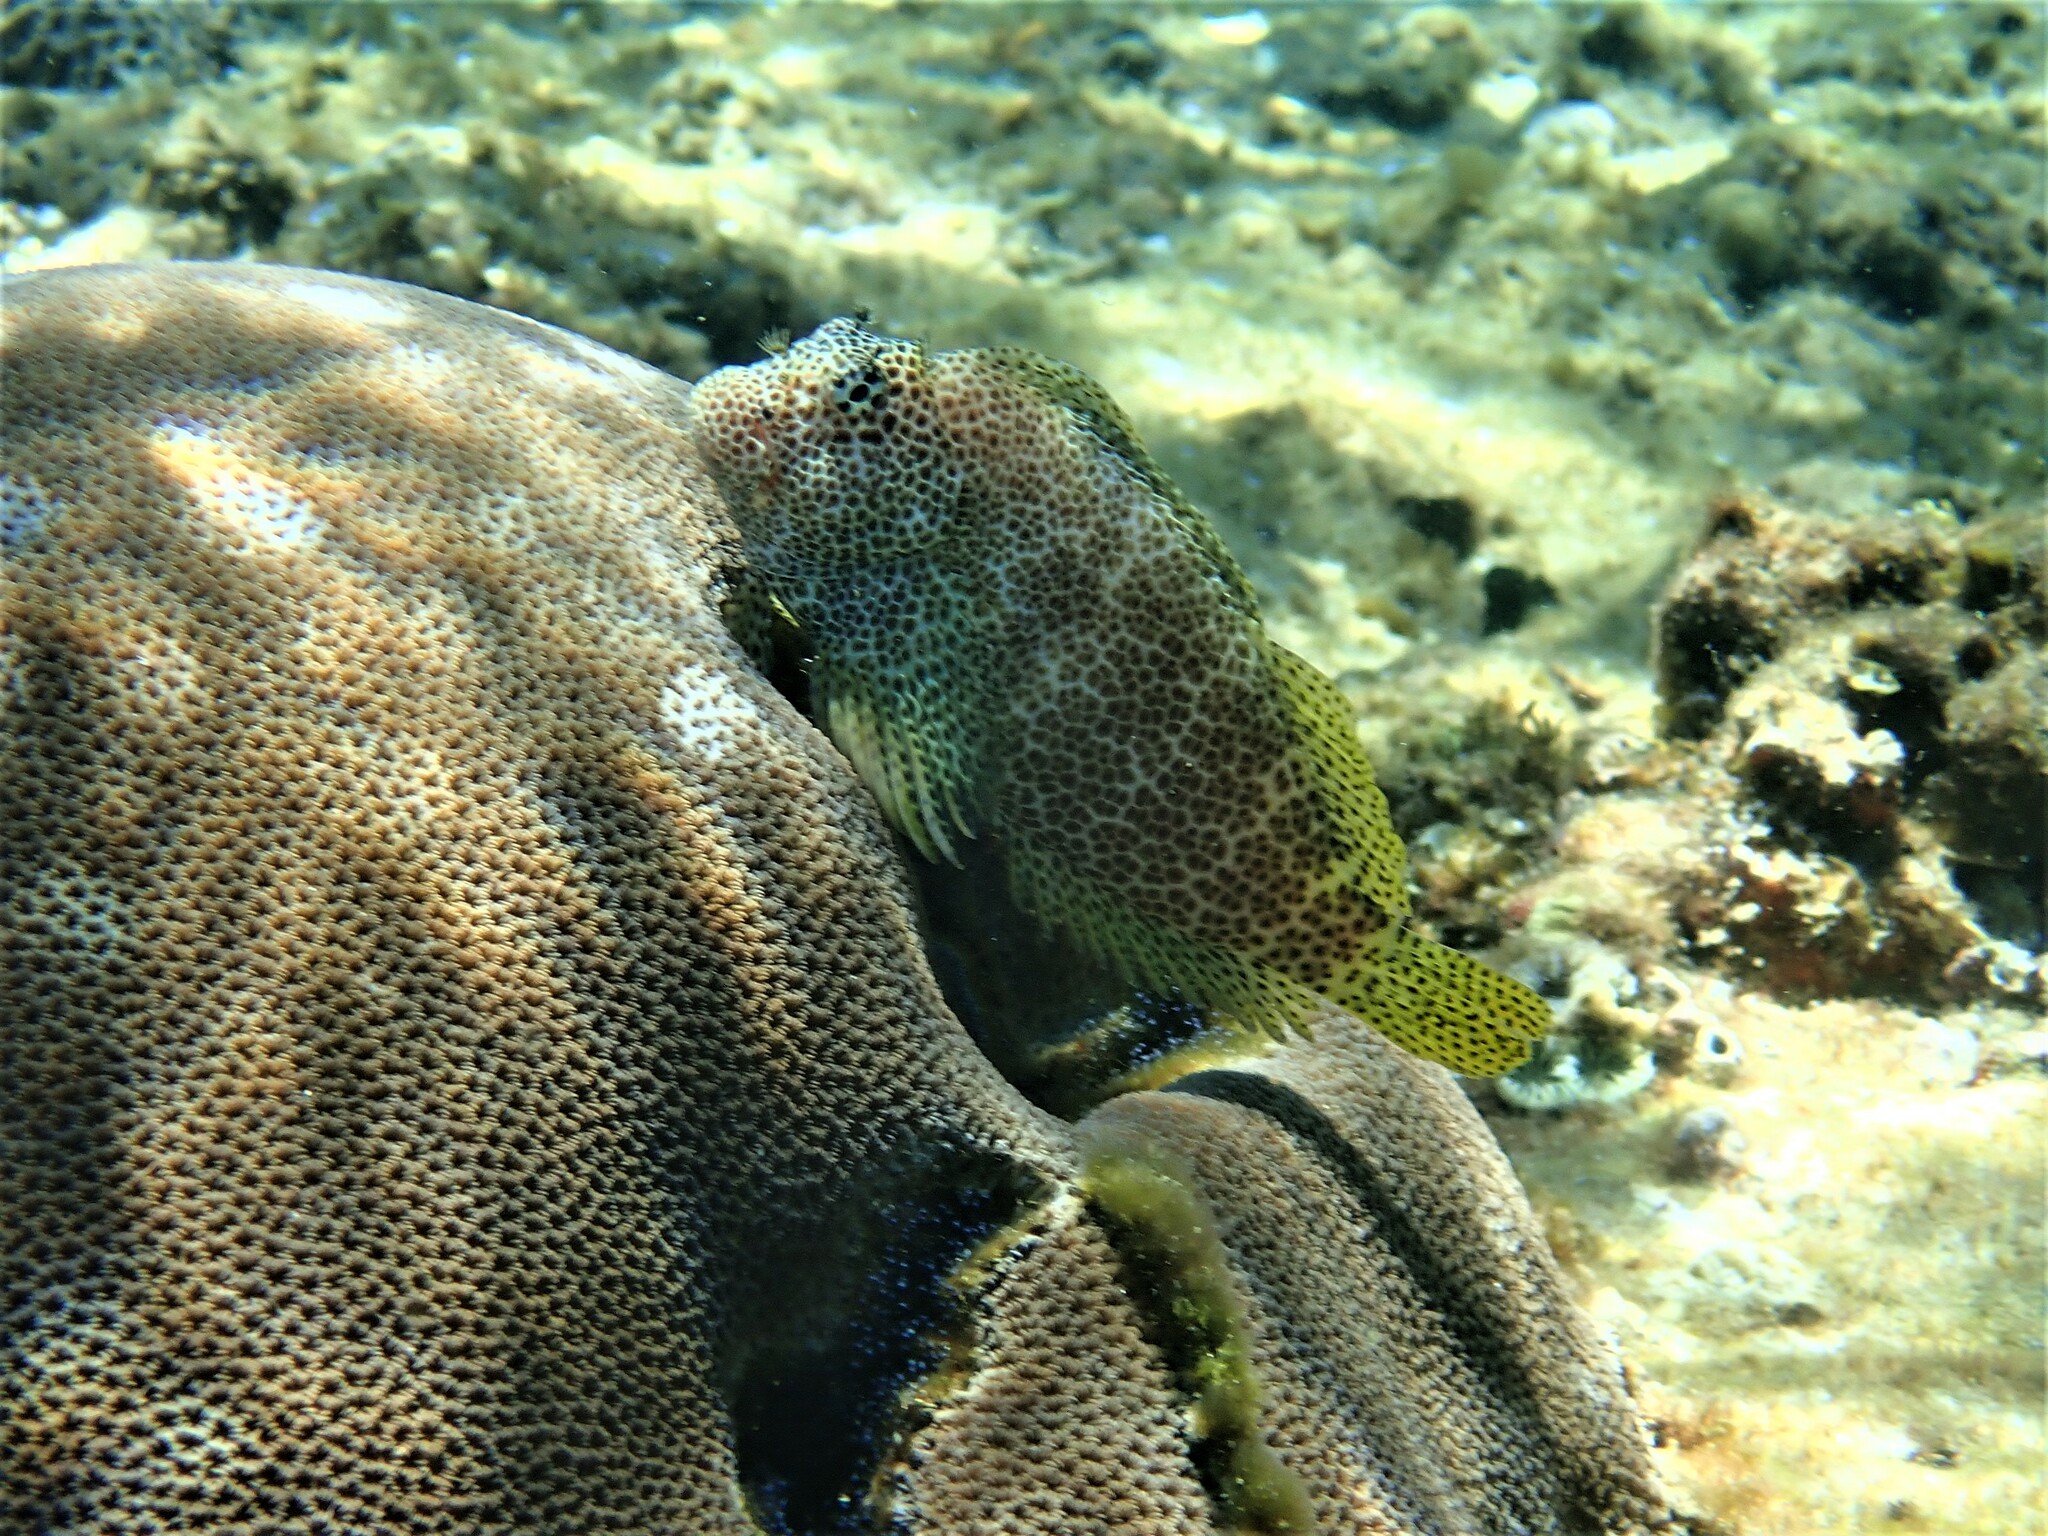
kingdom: Animalia
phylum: Chordata
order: Perciformes
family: Blenniidae
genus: Exallias
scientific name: Exallias brevis
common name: Leopard blenny
